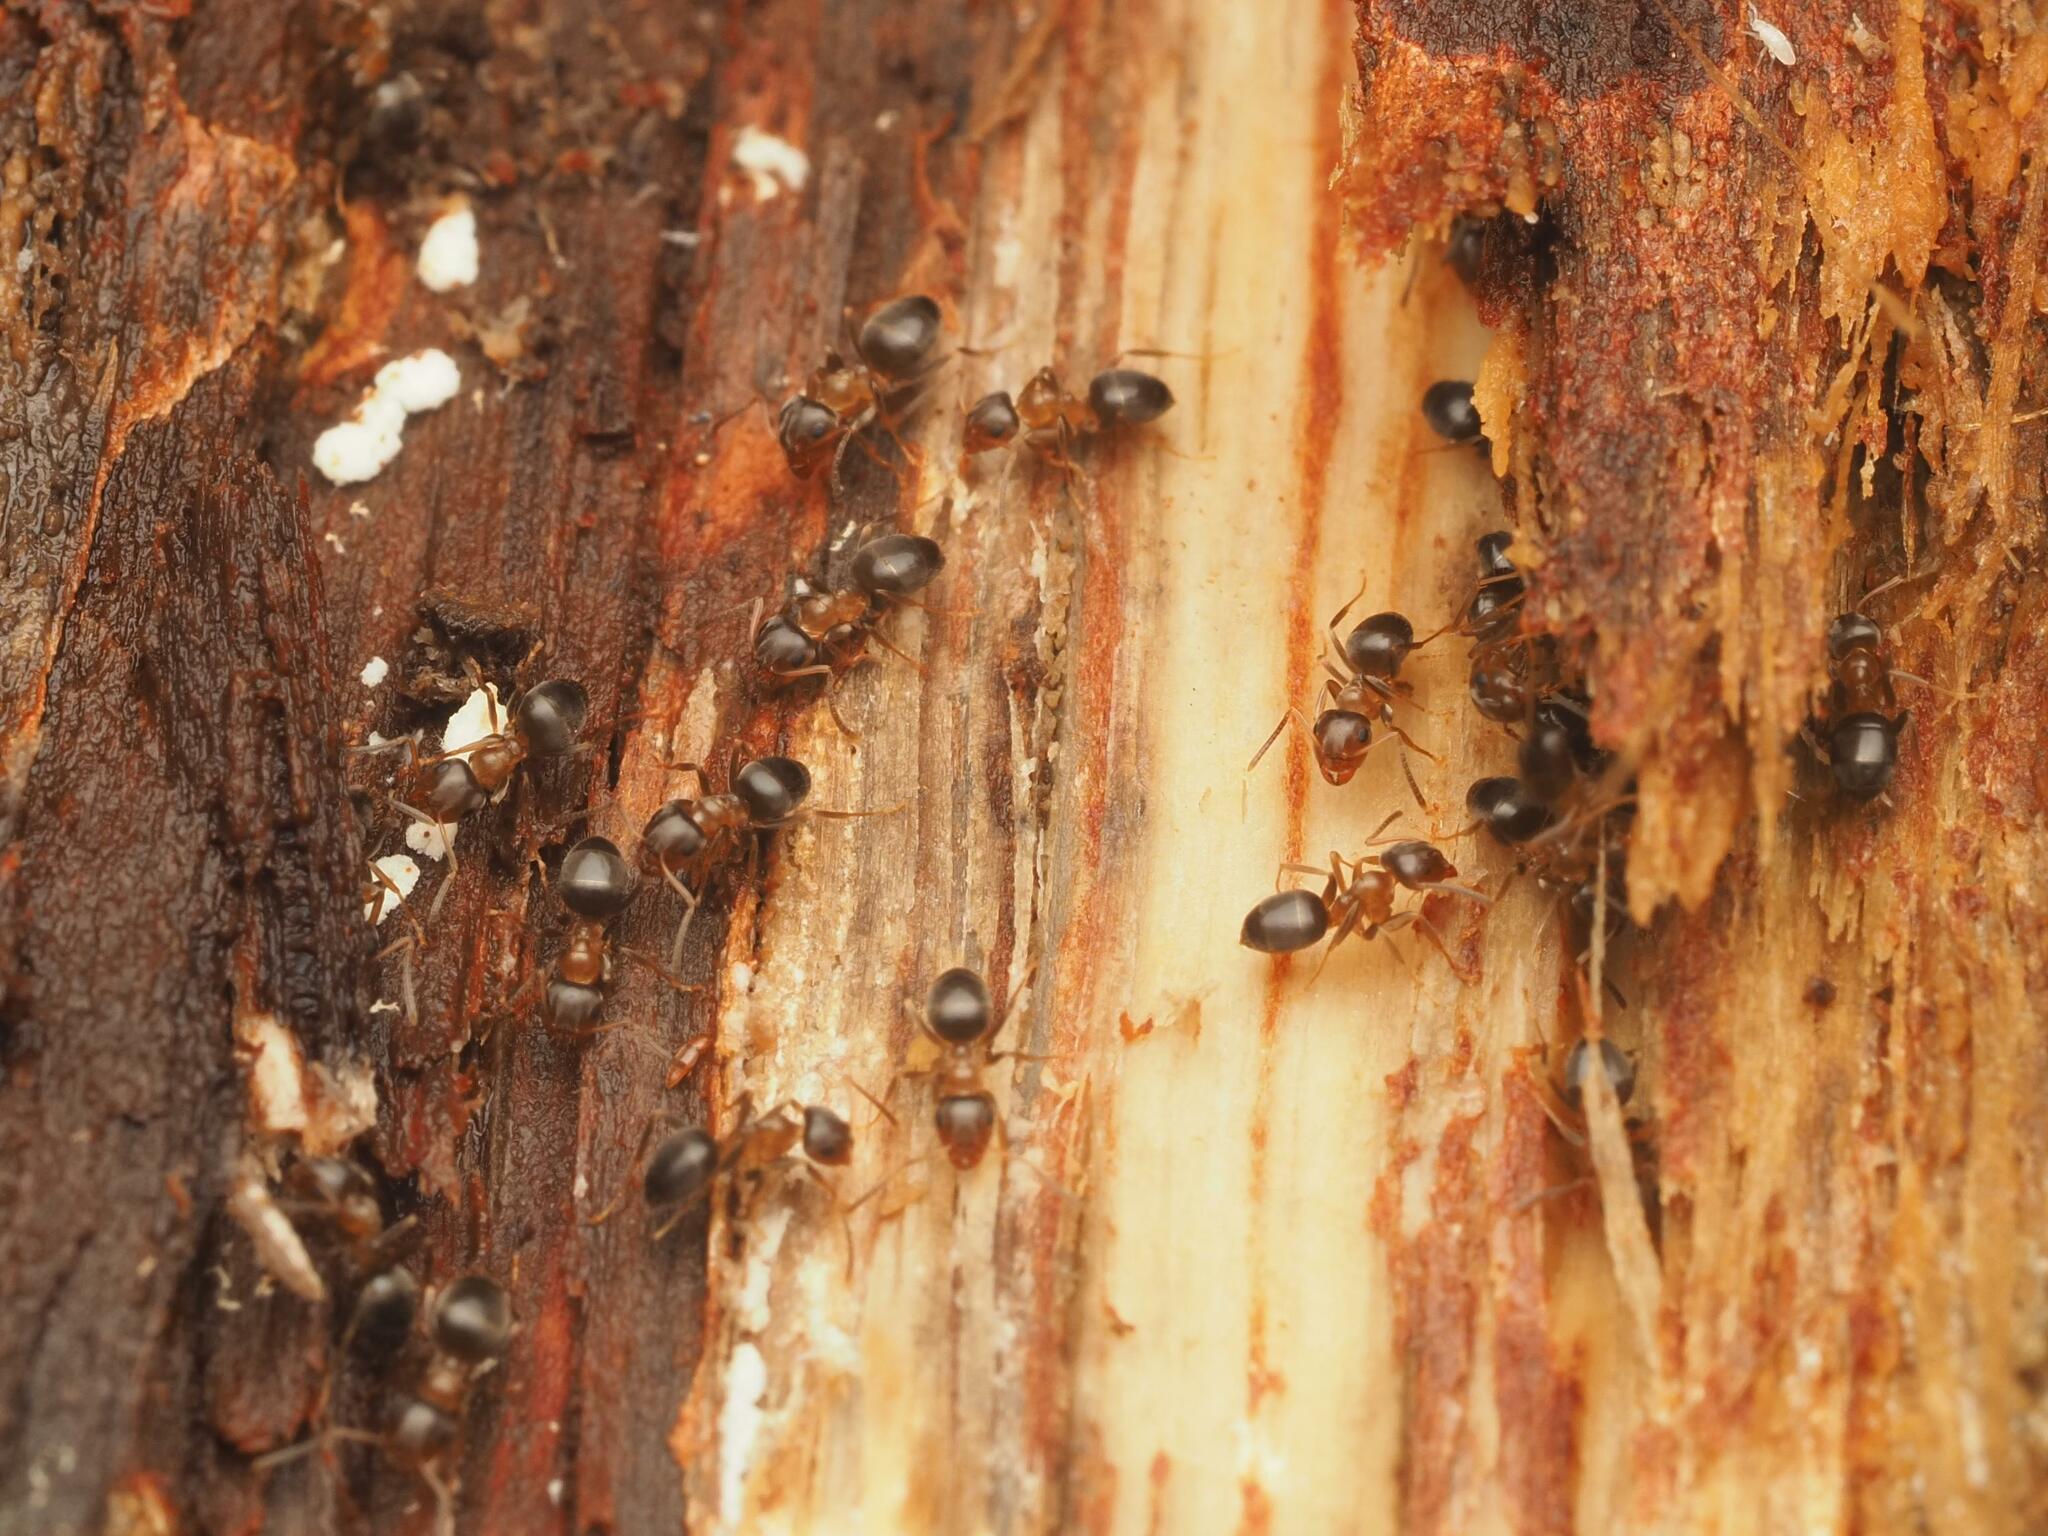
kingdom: Animalia
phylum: Arthropoda
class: Insecta
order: Hymenoptera
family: Formicidae
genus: Lasius
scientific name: Lasius brunneus
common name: Brown ant
